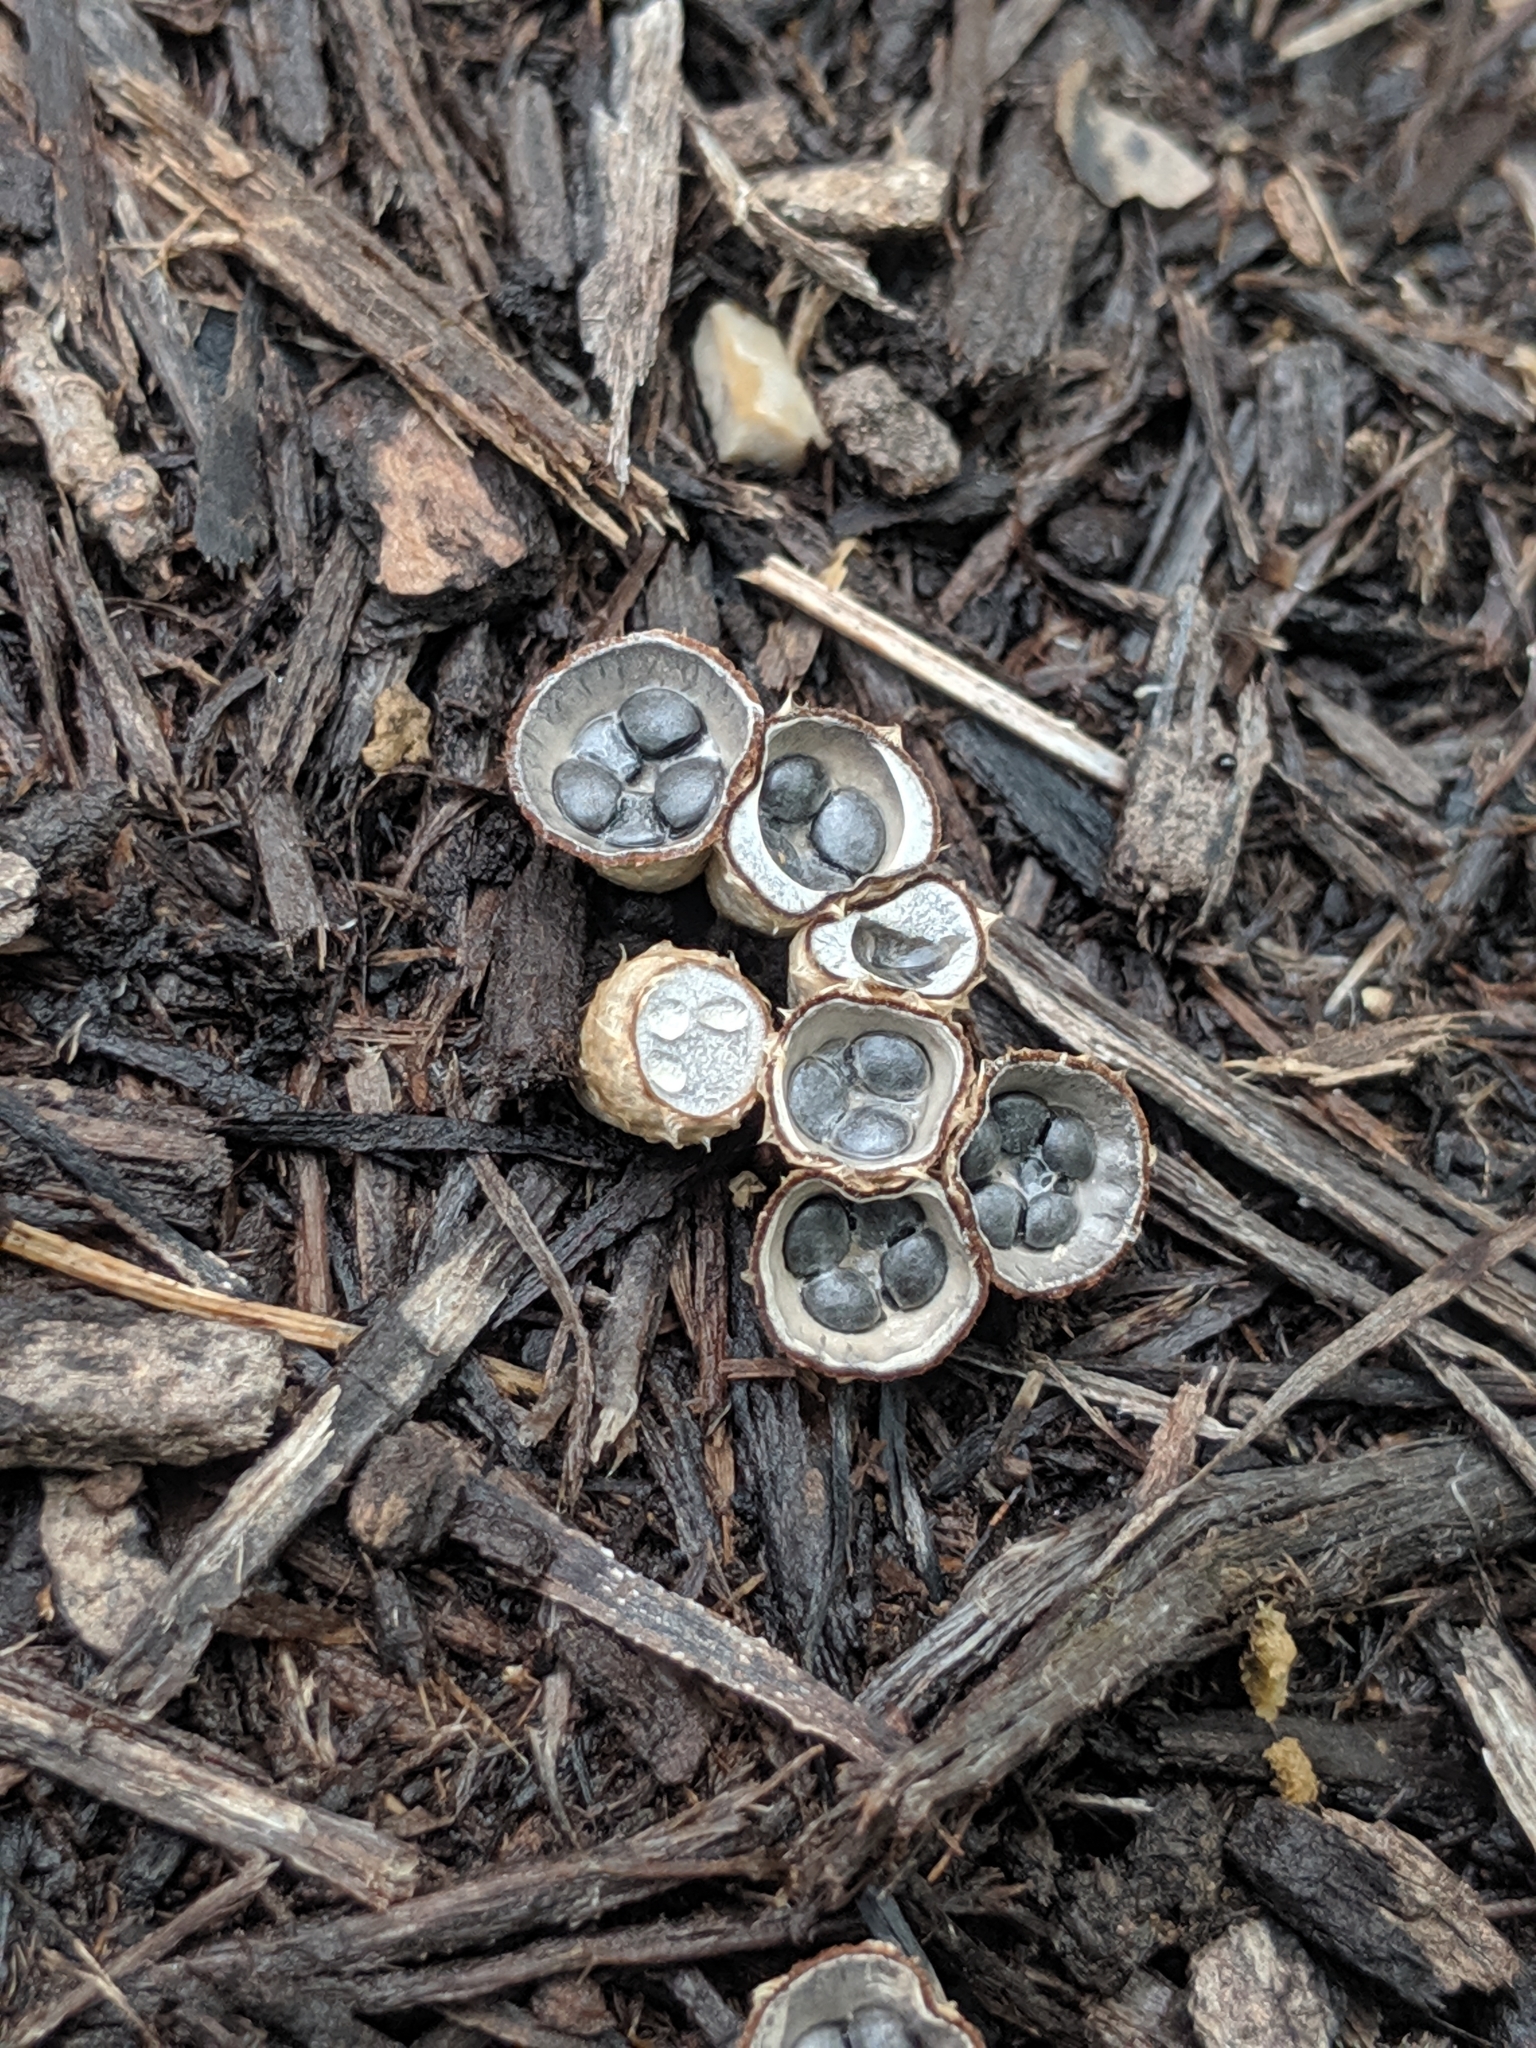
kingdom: Fungi
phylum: Basidiomycota
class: Agaricomycetes
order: Agaricales
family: Agaricaceae
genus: Cyathus
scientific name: Cyathus stercoreus
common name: Dung bird's nest
